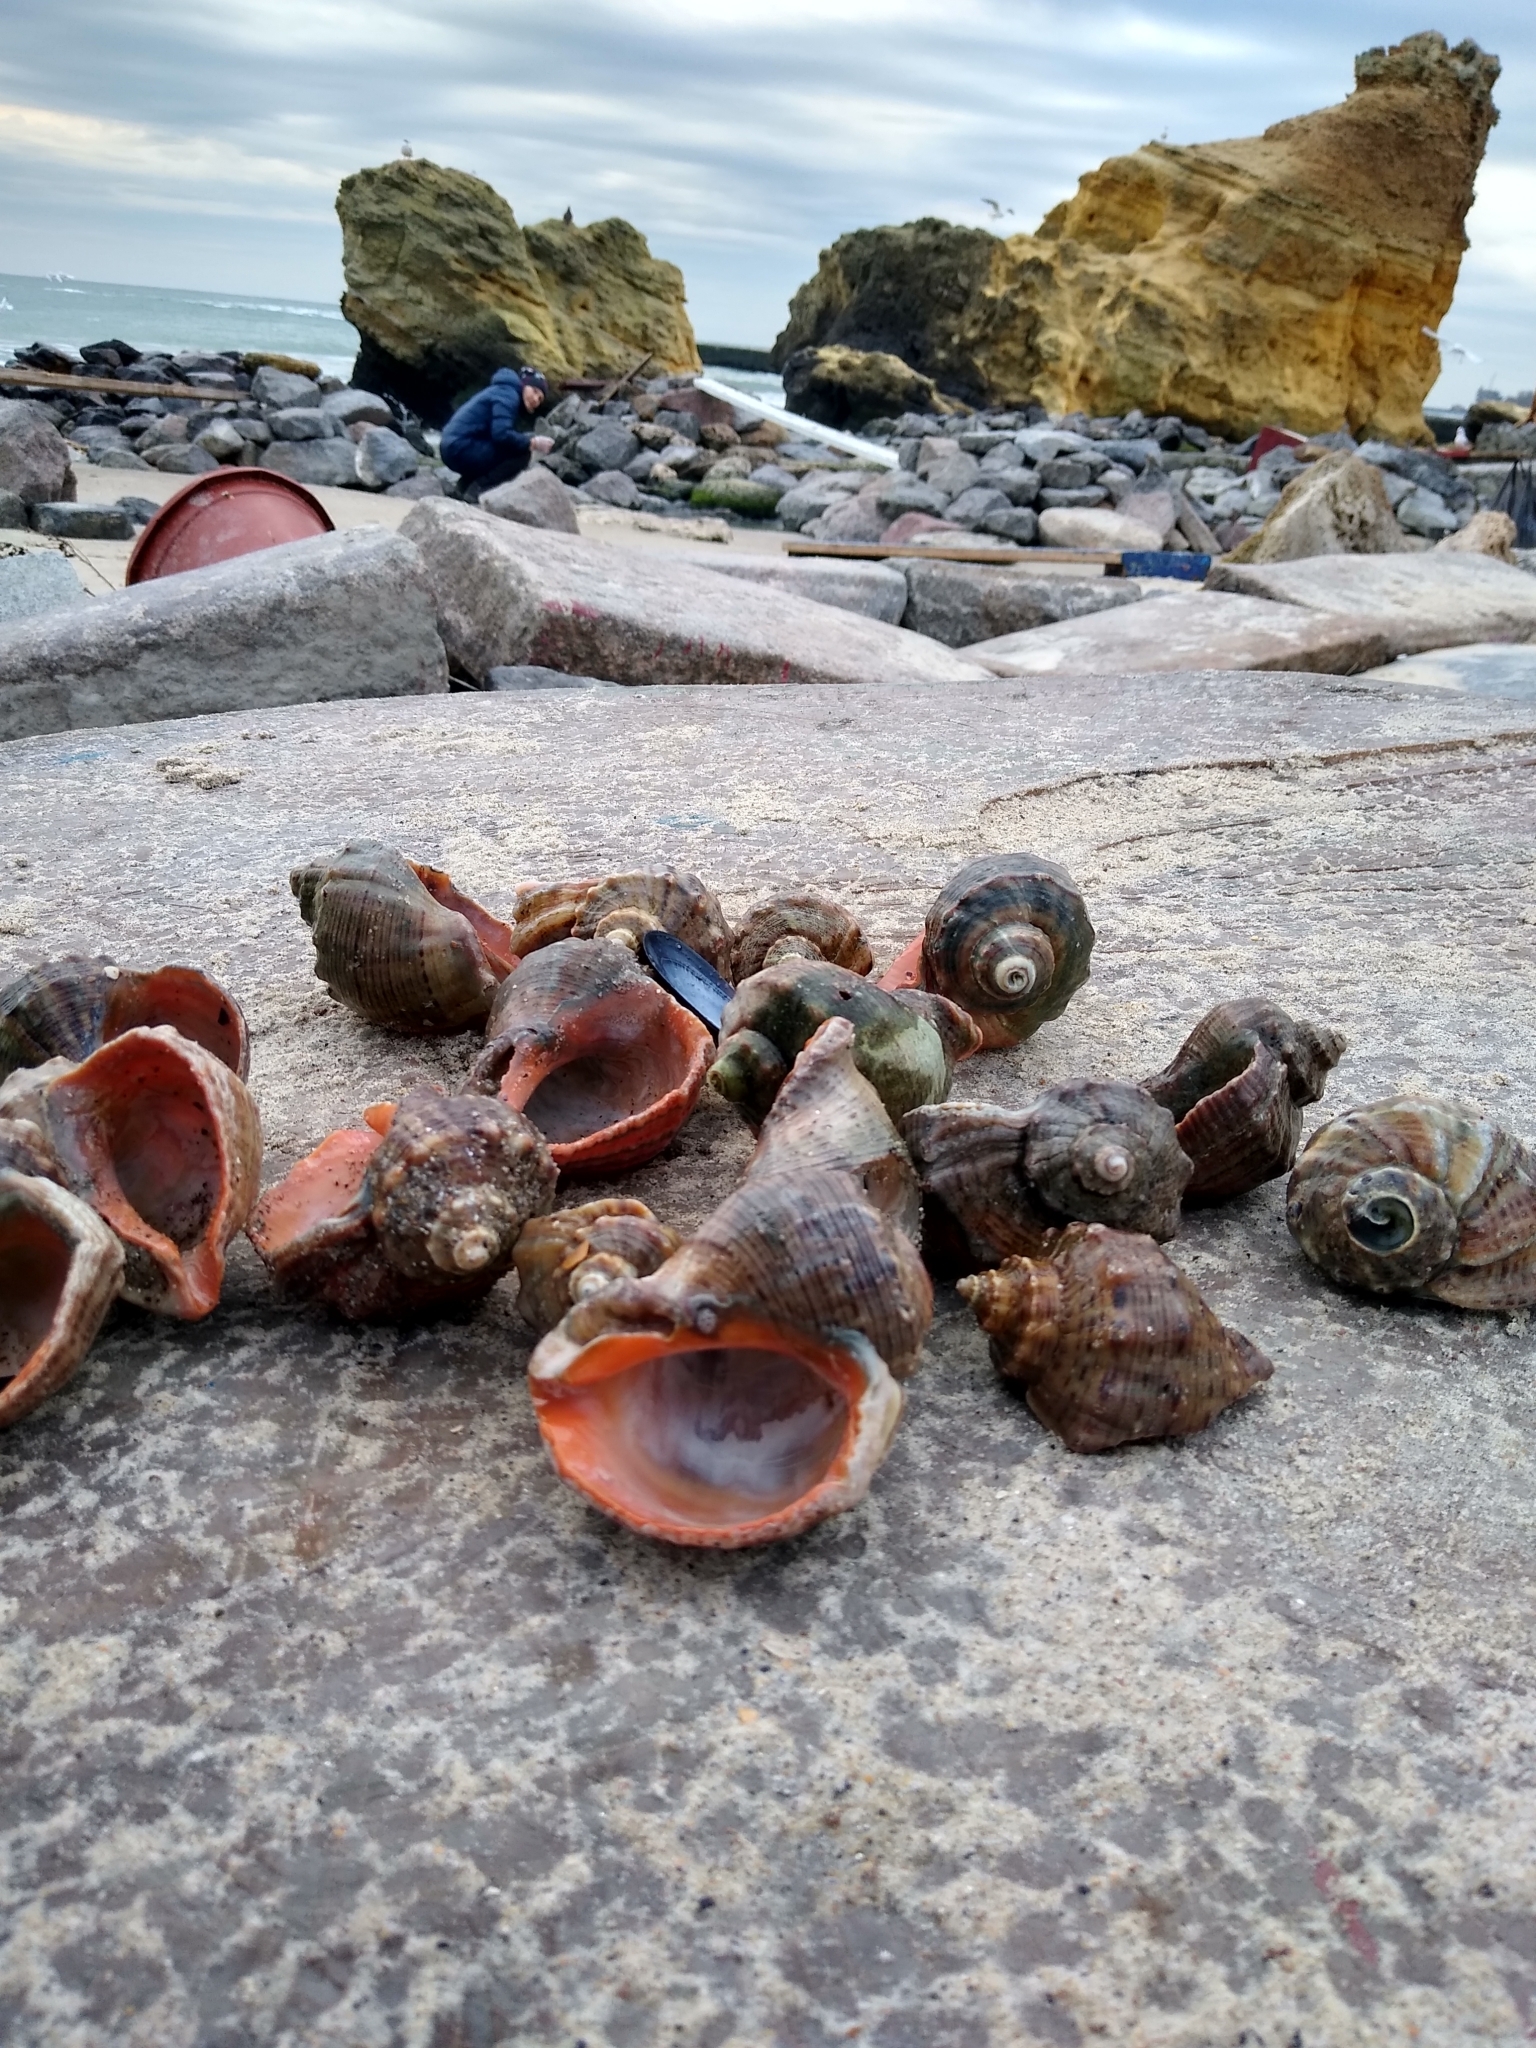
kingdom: Animalia
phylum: Mollusca
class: Gastropoda
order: Neogastropoda
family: Muricidae
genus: Rapana
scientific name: Rapana venosa
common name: Veined rapa whelk
